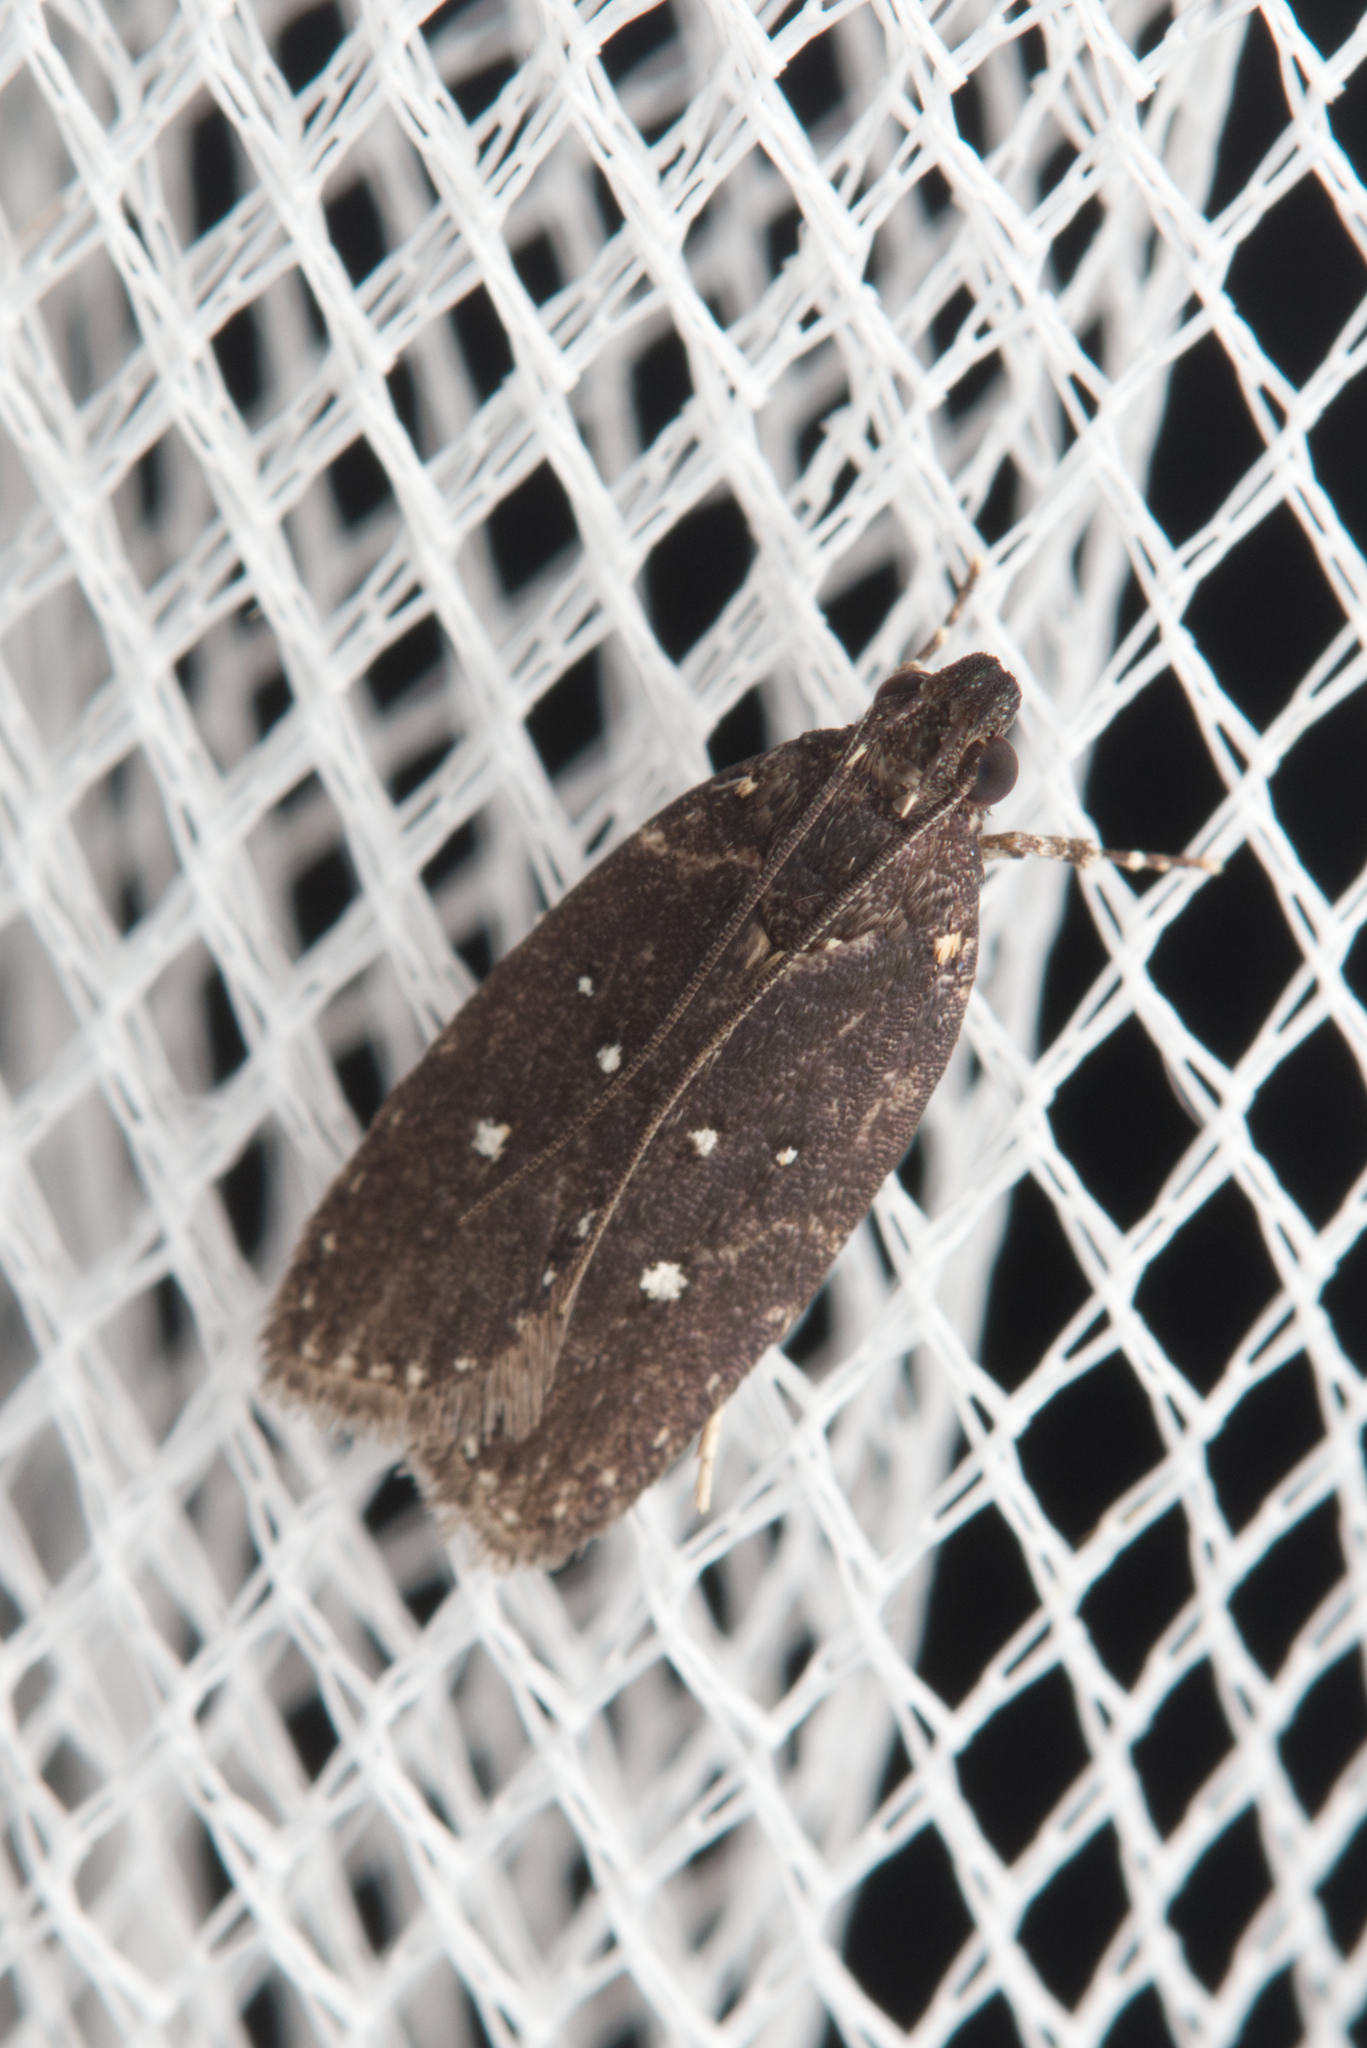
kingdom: Animalia
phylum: Arthropoda
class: Insecta
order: Lepidoptera
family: Gelechiidae
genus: Ardozyga
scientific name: Ardozyga nyctias
